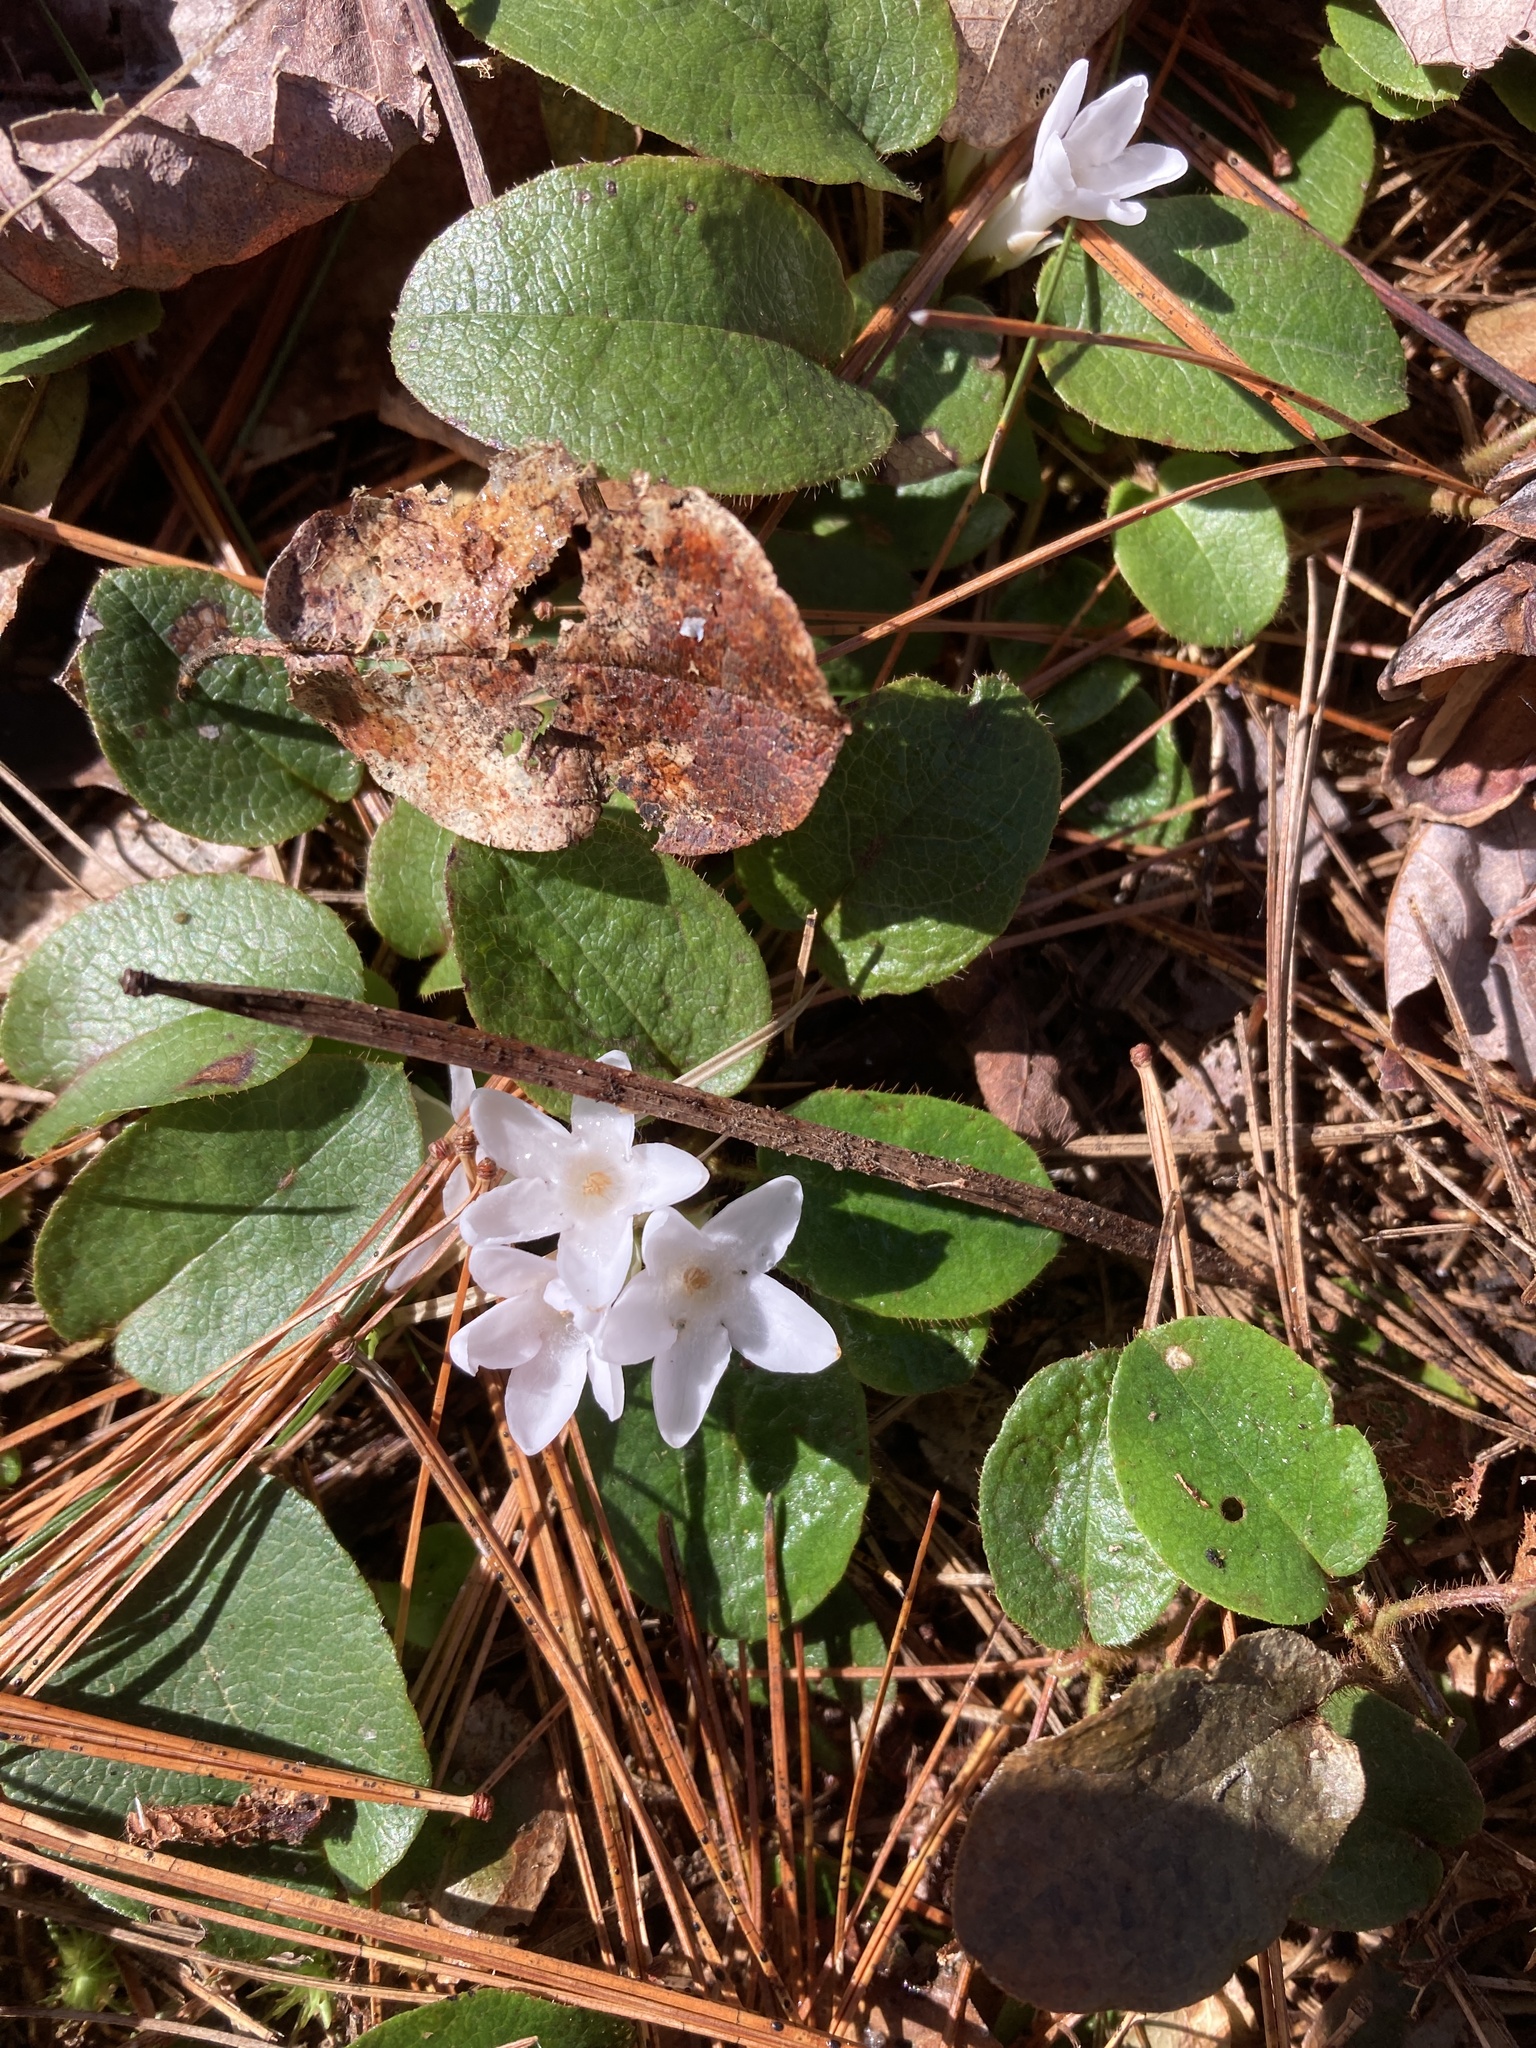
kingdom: Plantae
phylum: Tracheophyta
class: Magnoliopsida
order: Ericales
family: Ericaceae
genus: Epigaea
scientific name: Epigaea repens
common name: Gravelroot
